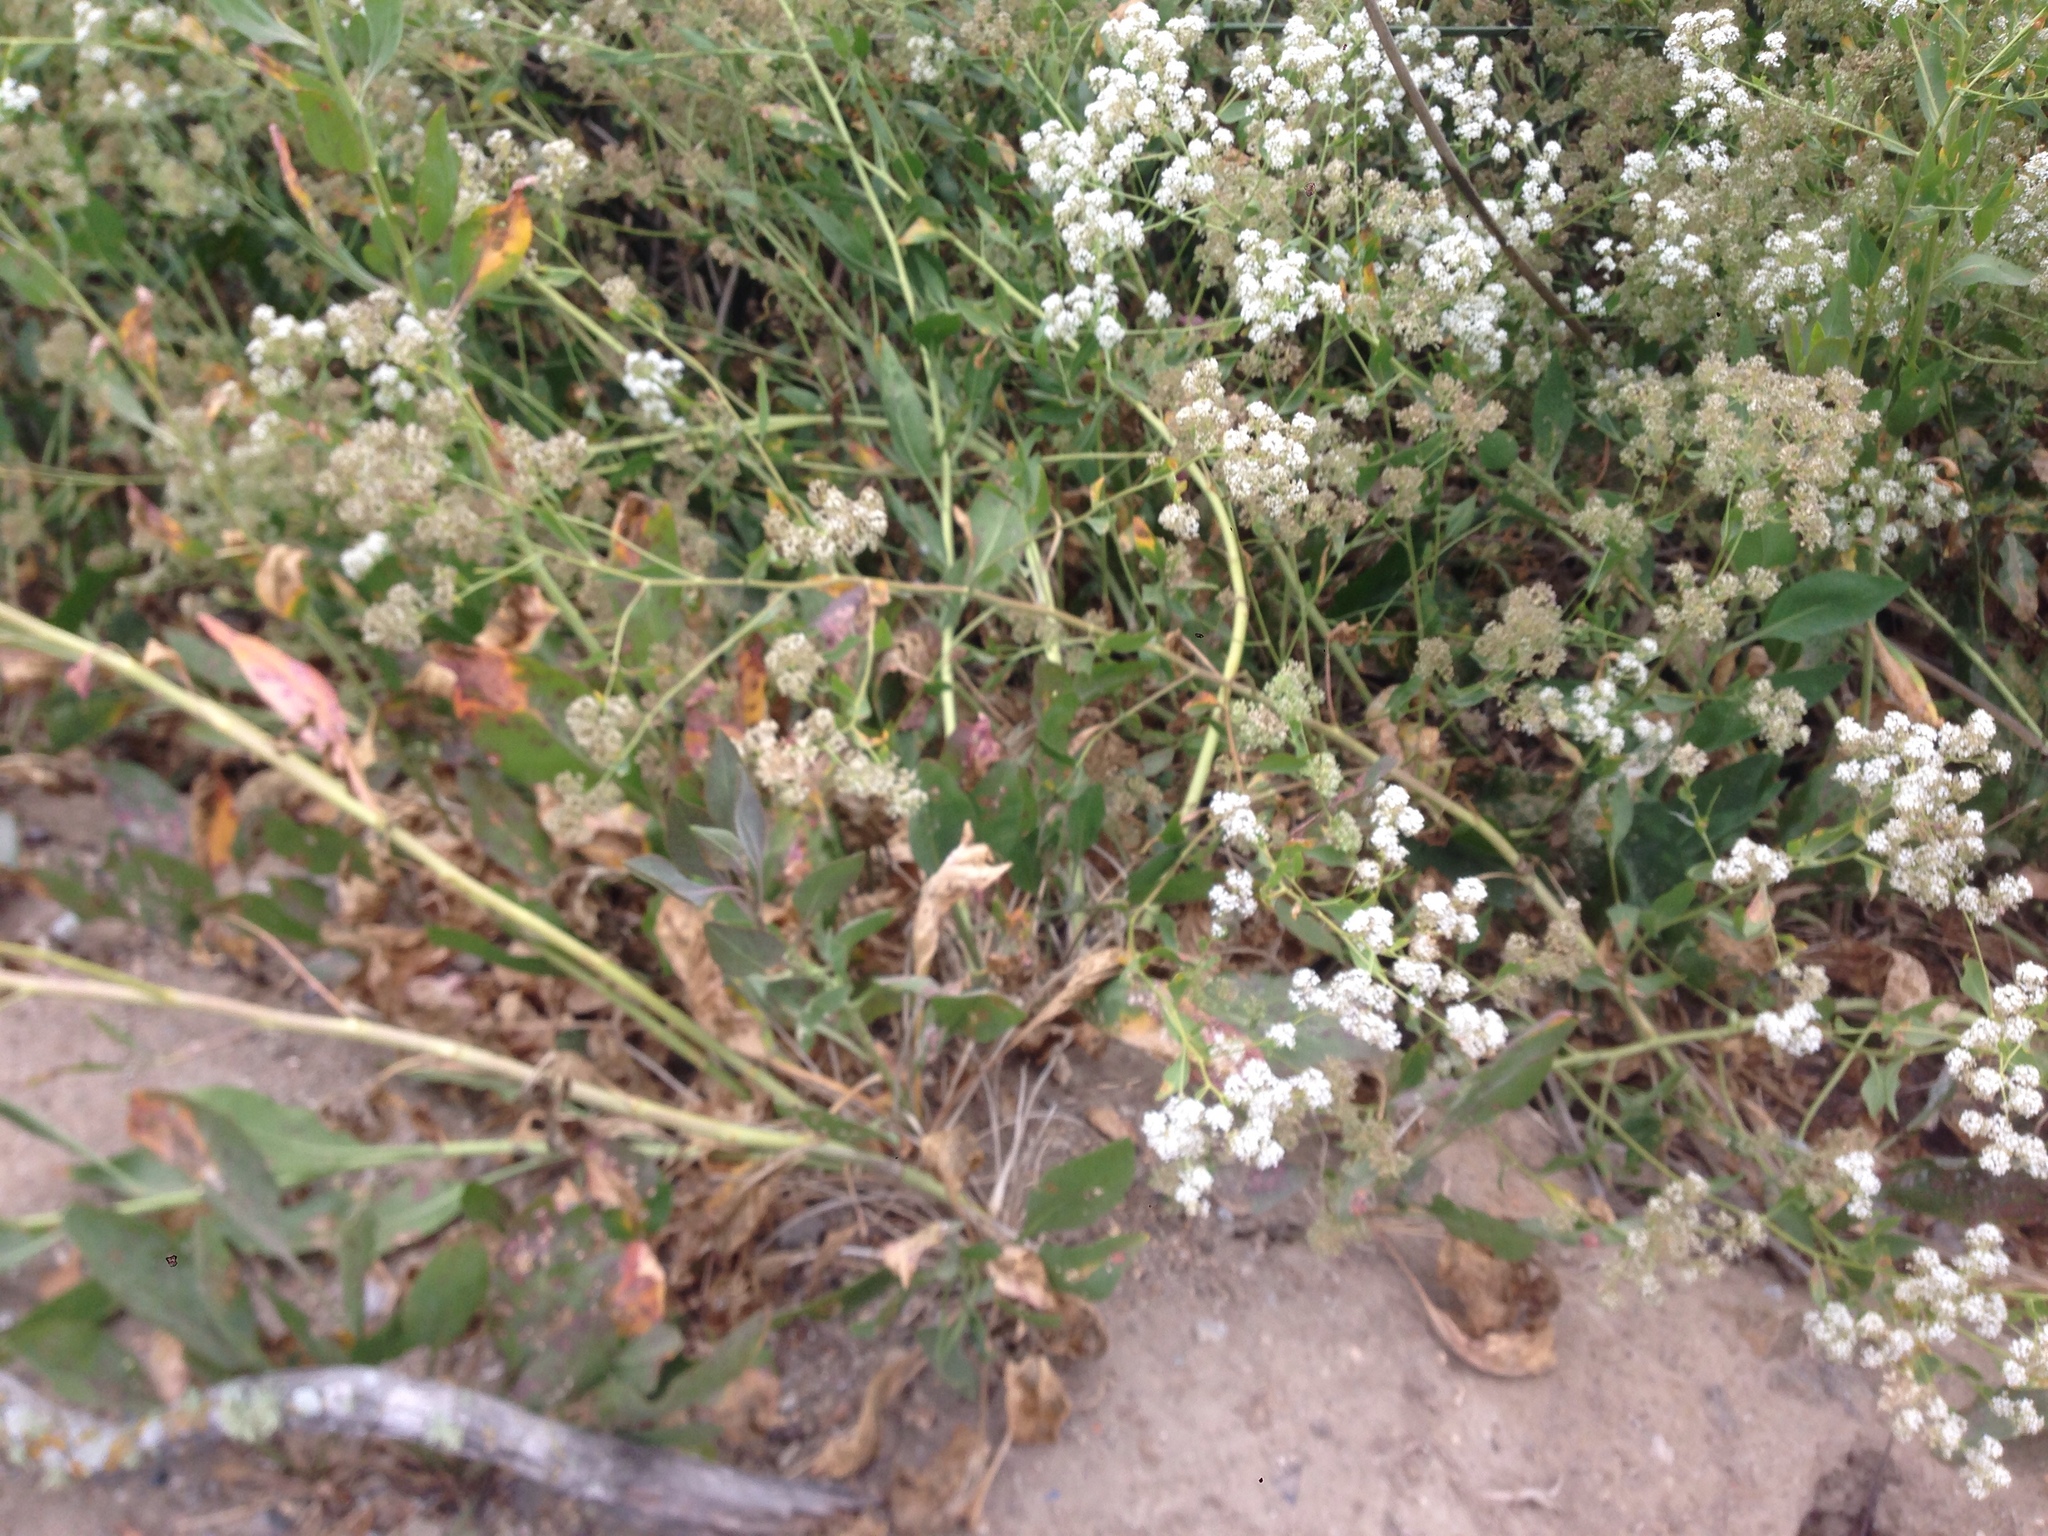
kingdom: Plantae
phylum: Tracheophyta
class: Magnoliopsida
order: Brassicales
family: Brassicaceae
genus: Lepidium
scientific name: Lepidium latifolium
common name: Dittander
